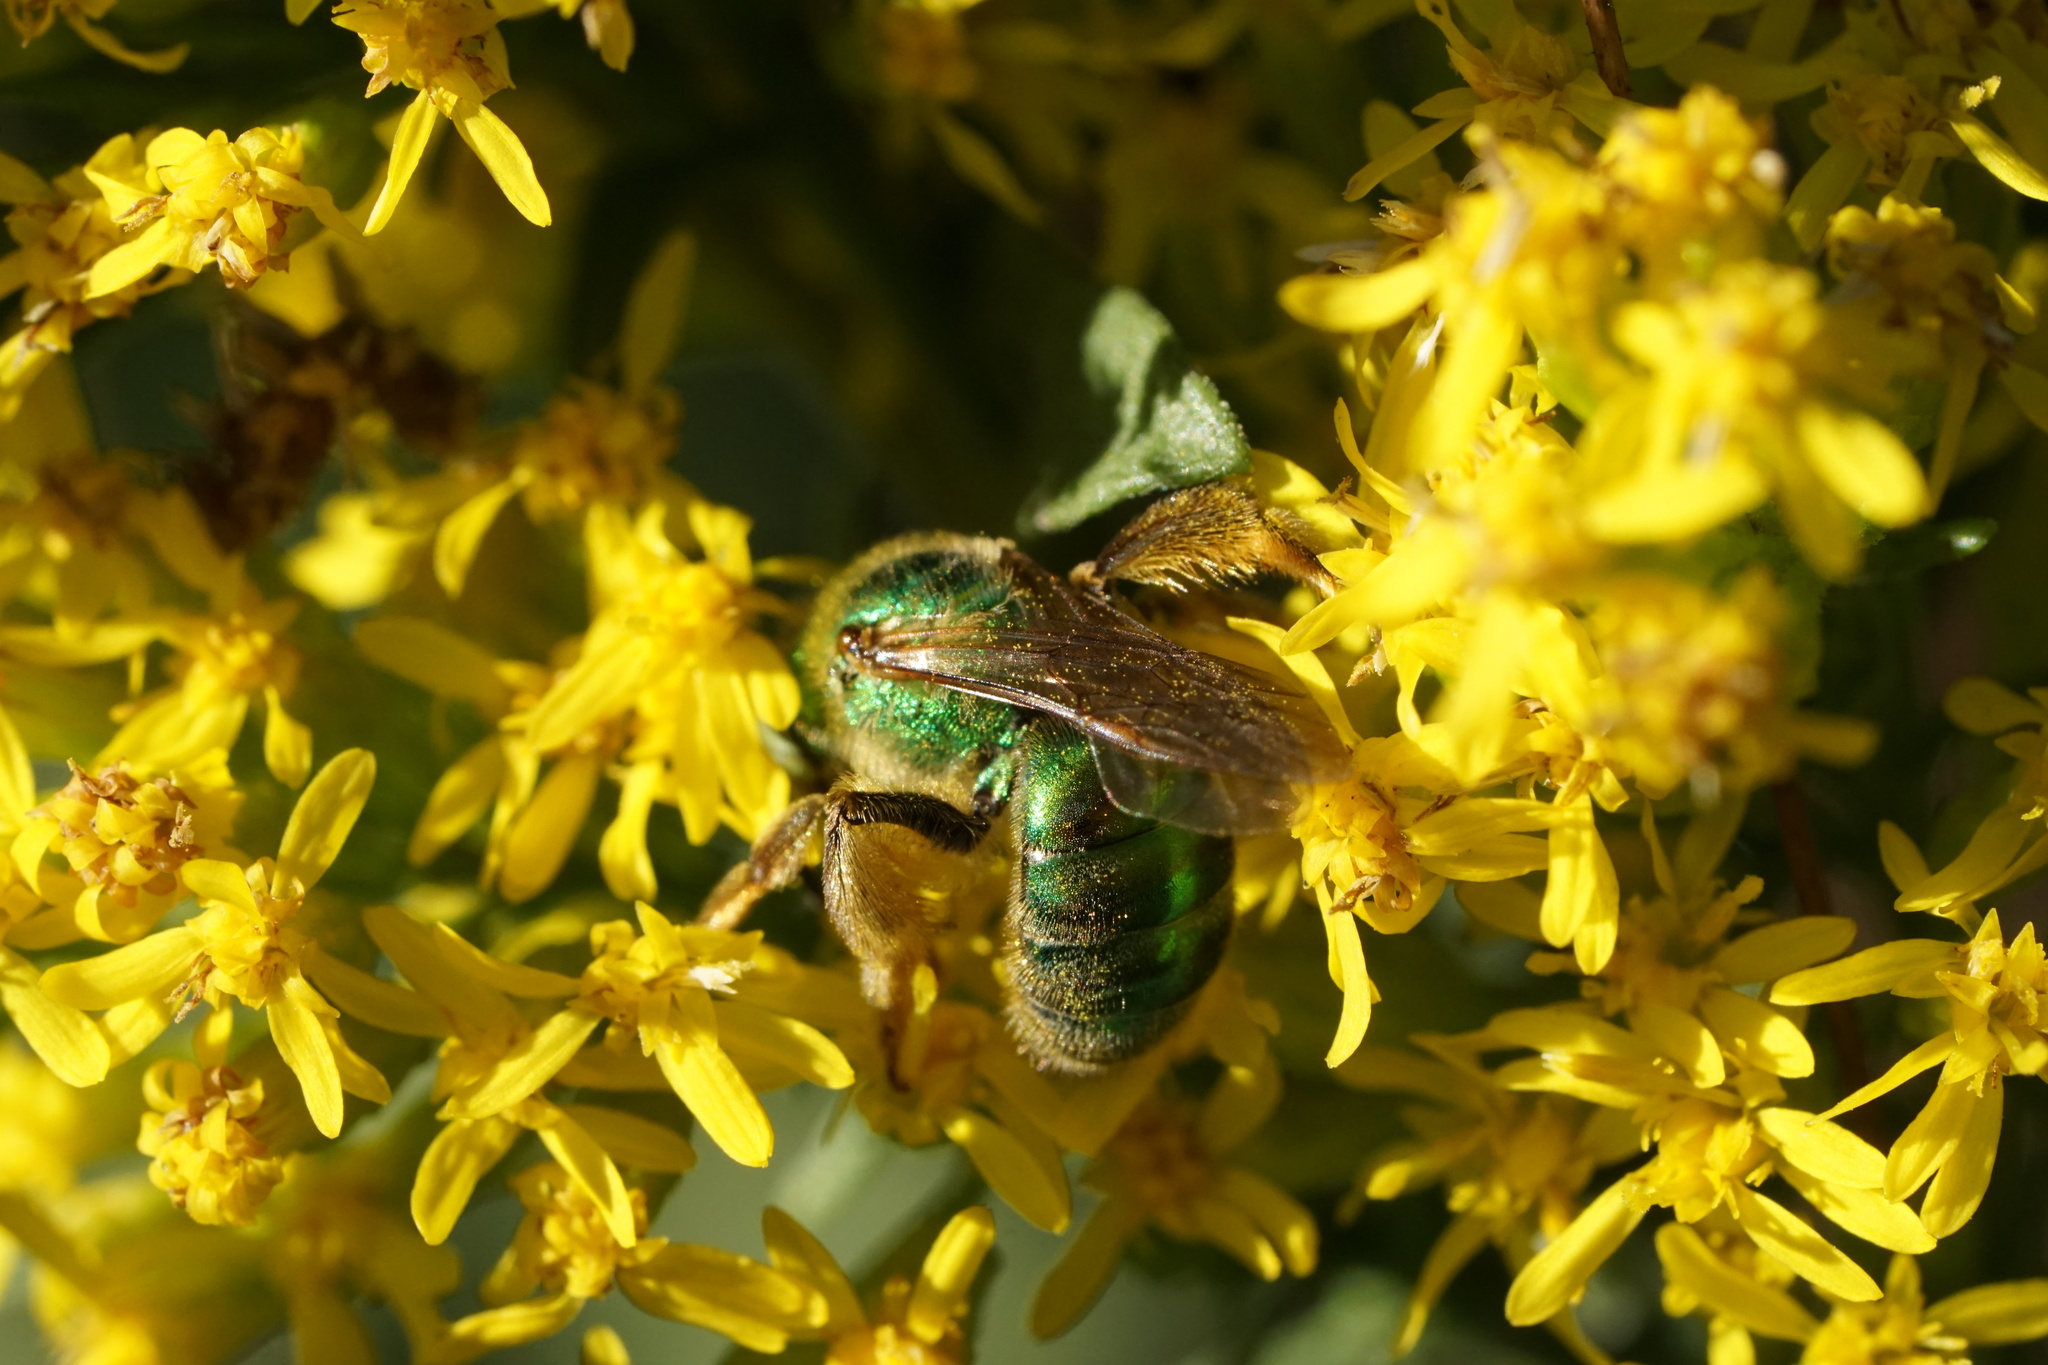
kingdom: Animalia
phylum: Arthropoda
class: Insecta
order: Hymenoptera
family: Halictidae
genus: Agapostemon
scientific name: Agapostemon texanus
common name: Texas striped sweat bee
